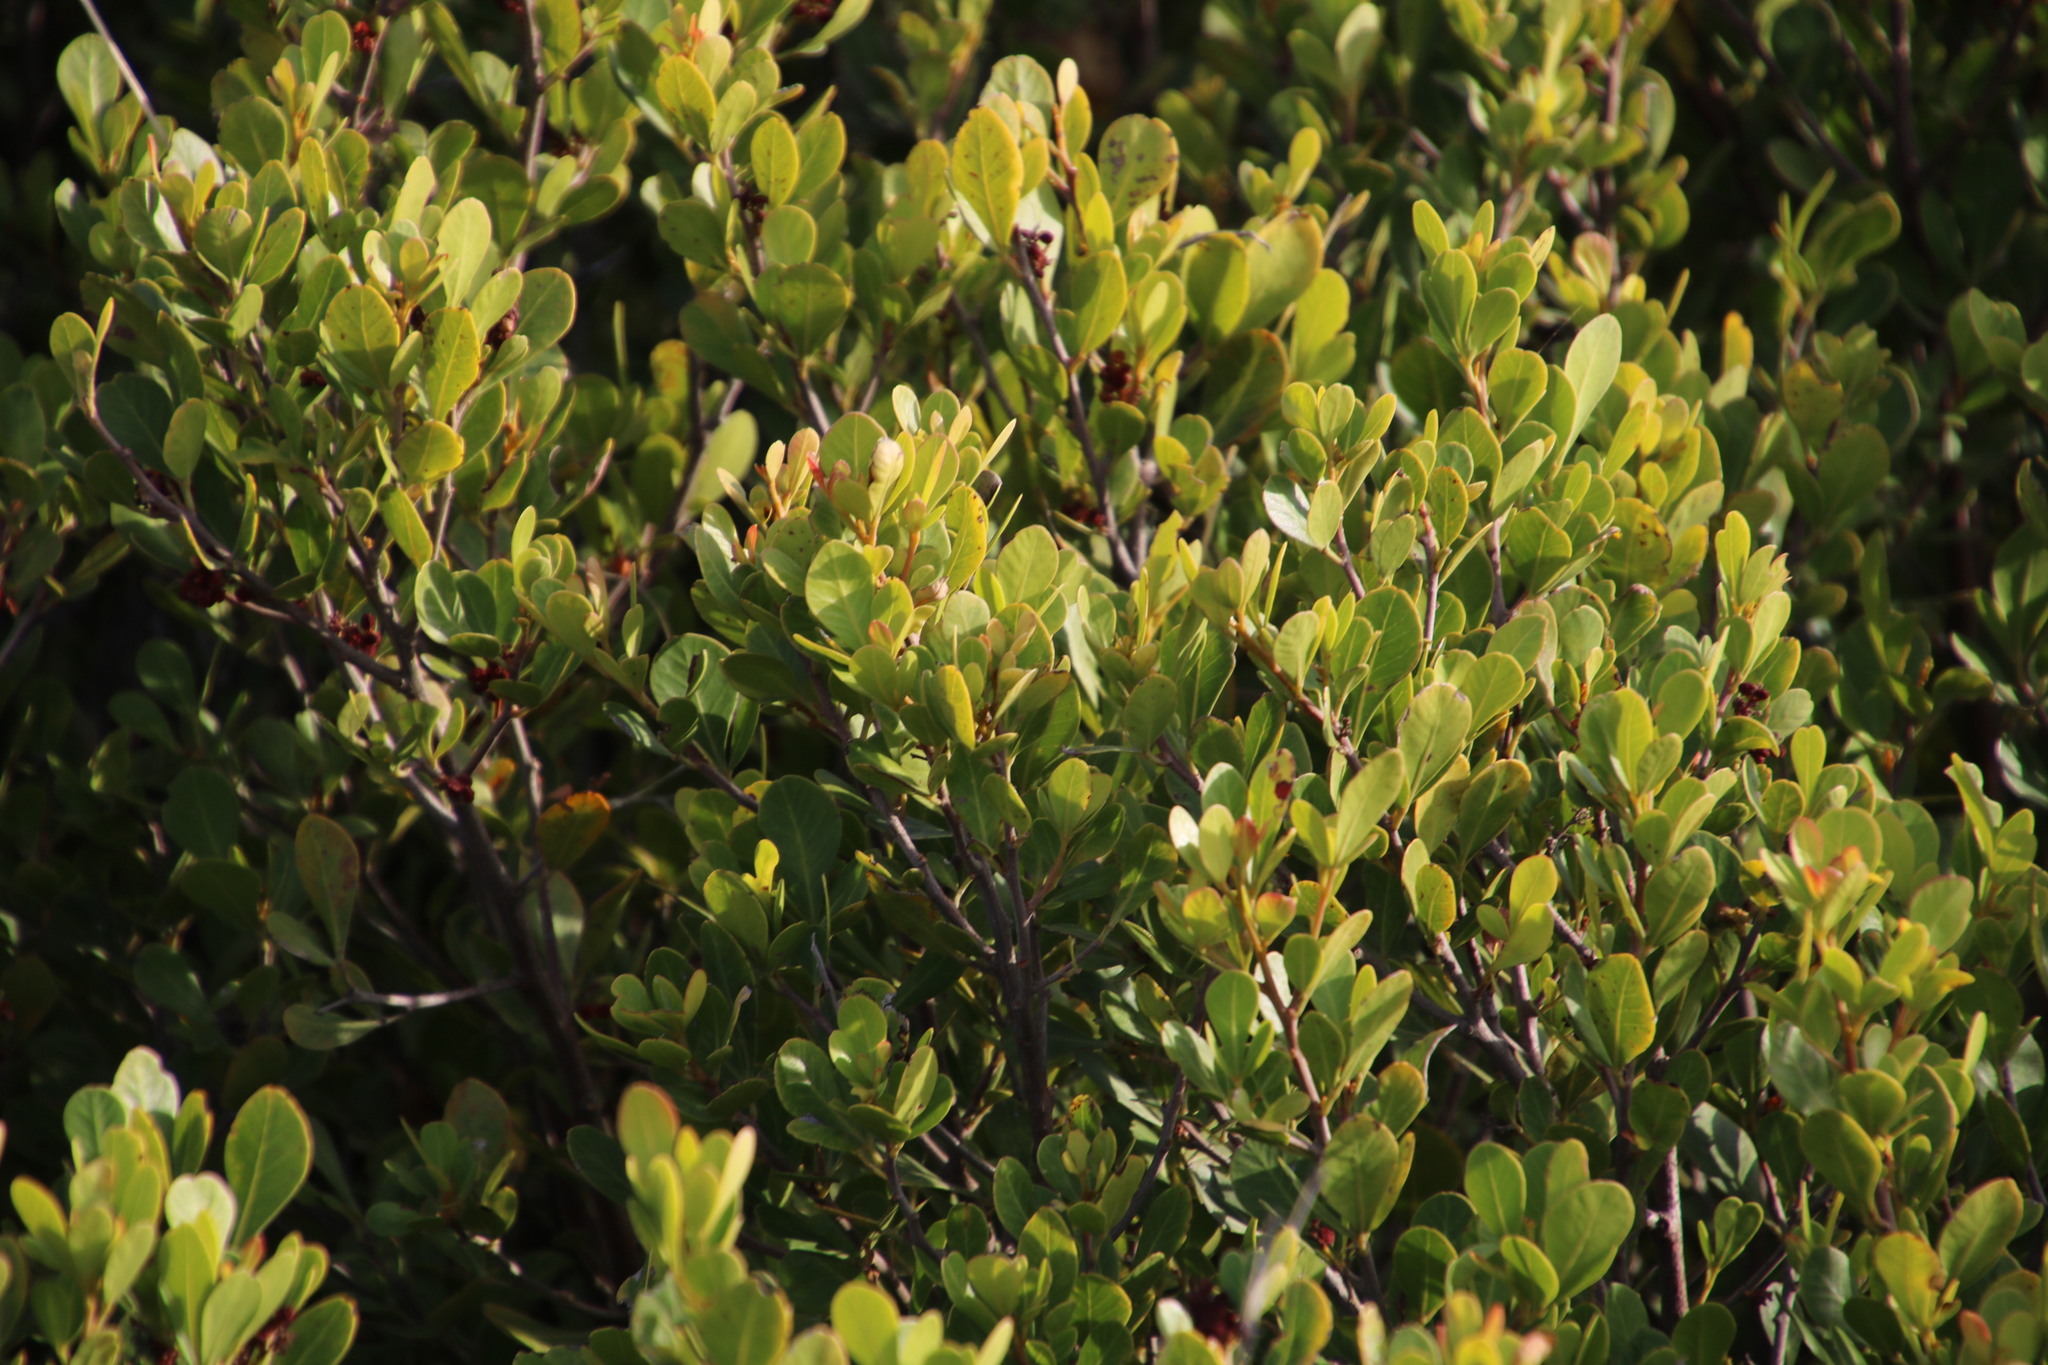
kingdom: Plantae
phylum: Tracheophyta
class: Magnoliopsida
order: Sapindales
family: Anacardiaceae
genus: Searsia
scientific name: Searsia lucida
